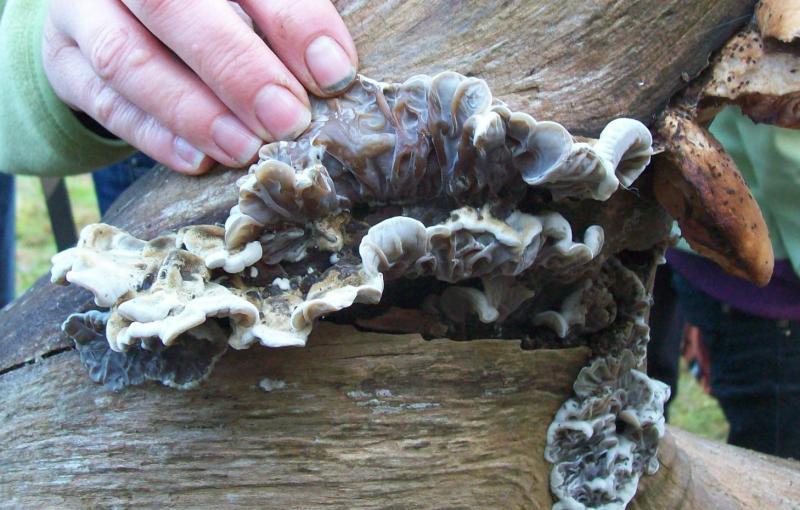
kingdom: Fungi
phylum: Basidiomycota
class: Agaricomycetes
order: Auriculariales
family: Auriculariaceae
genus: Auricularia
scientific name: Auricularia mesenterica
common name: Tripe fungus
